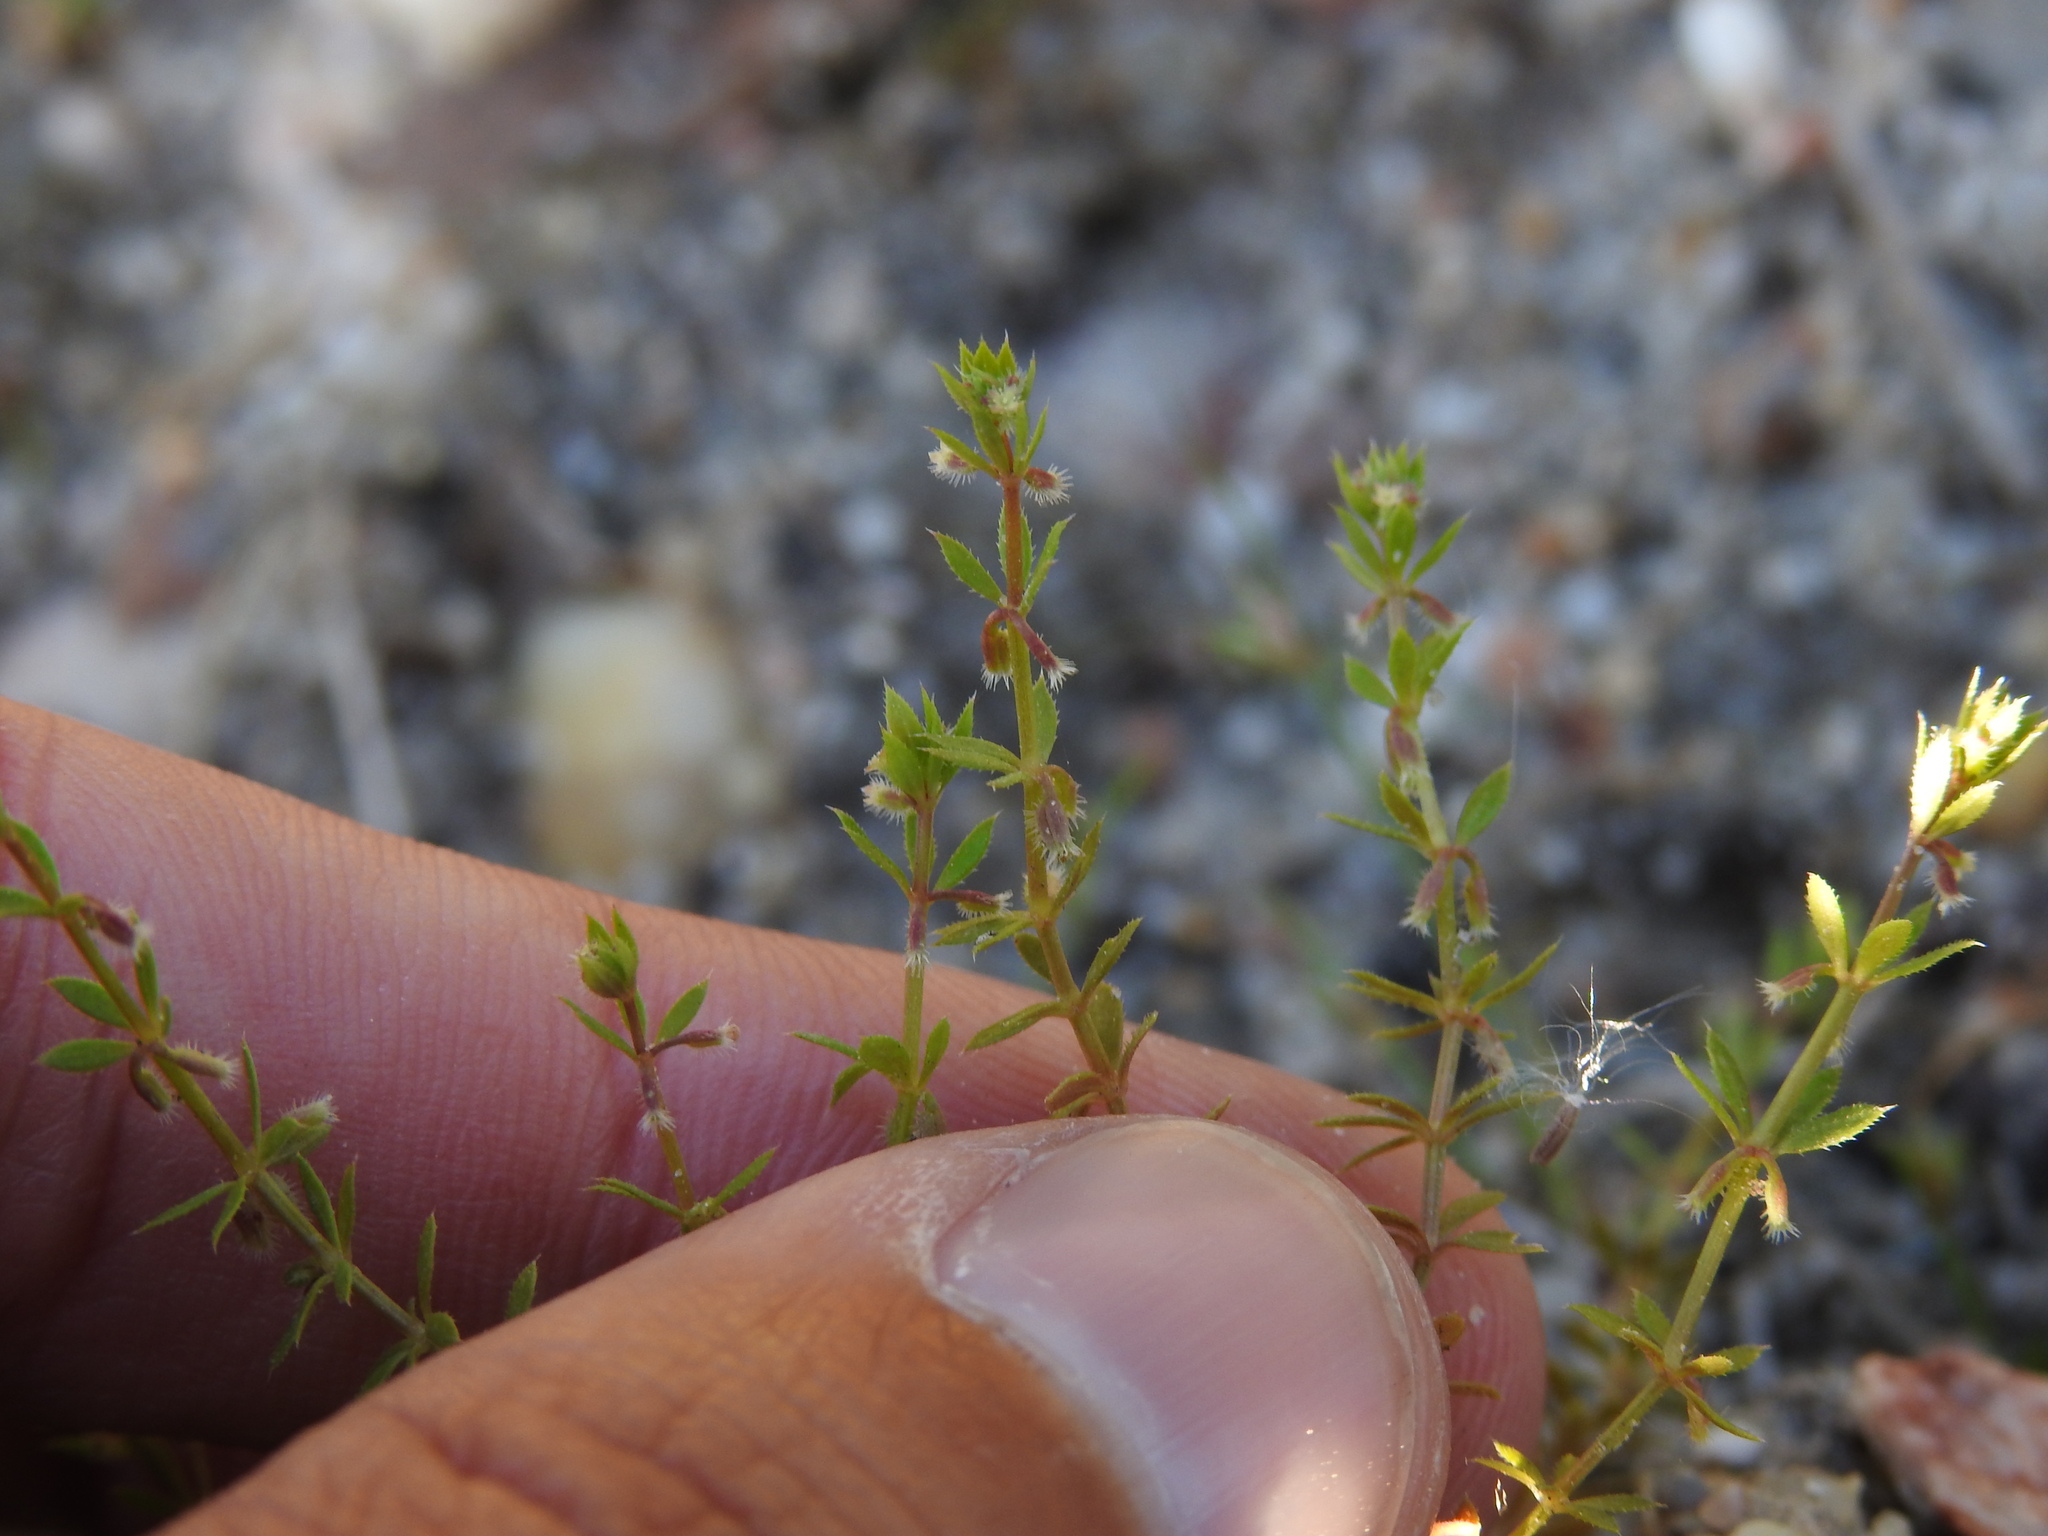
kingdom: Plantae
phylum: Tracheophyta
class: Magnoliopsida
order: Gentianales
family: Rubiaceae
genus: Galium
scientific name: Galium murale
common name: Yellow wall bedstraw
